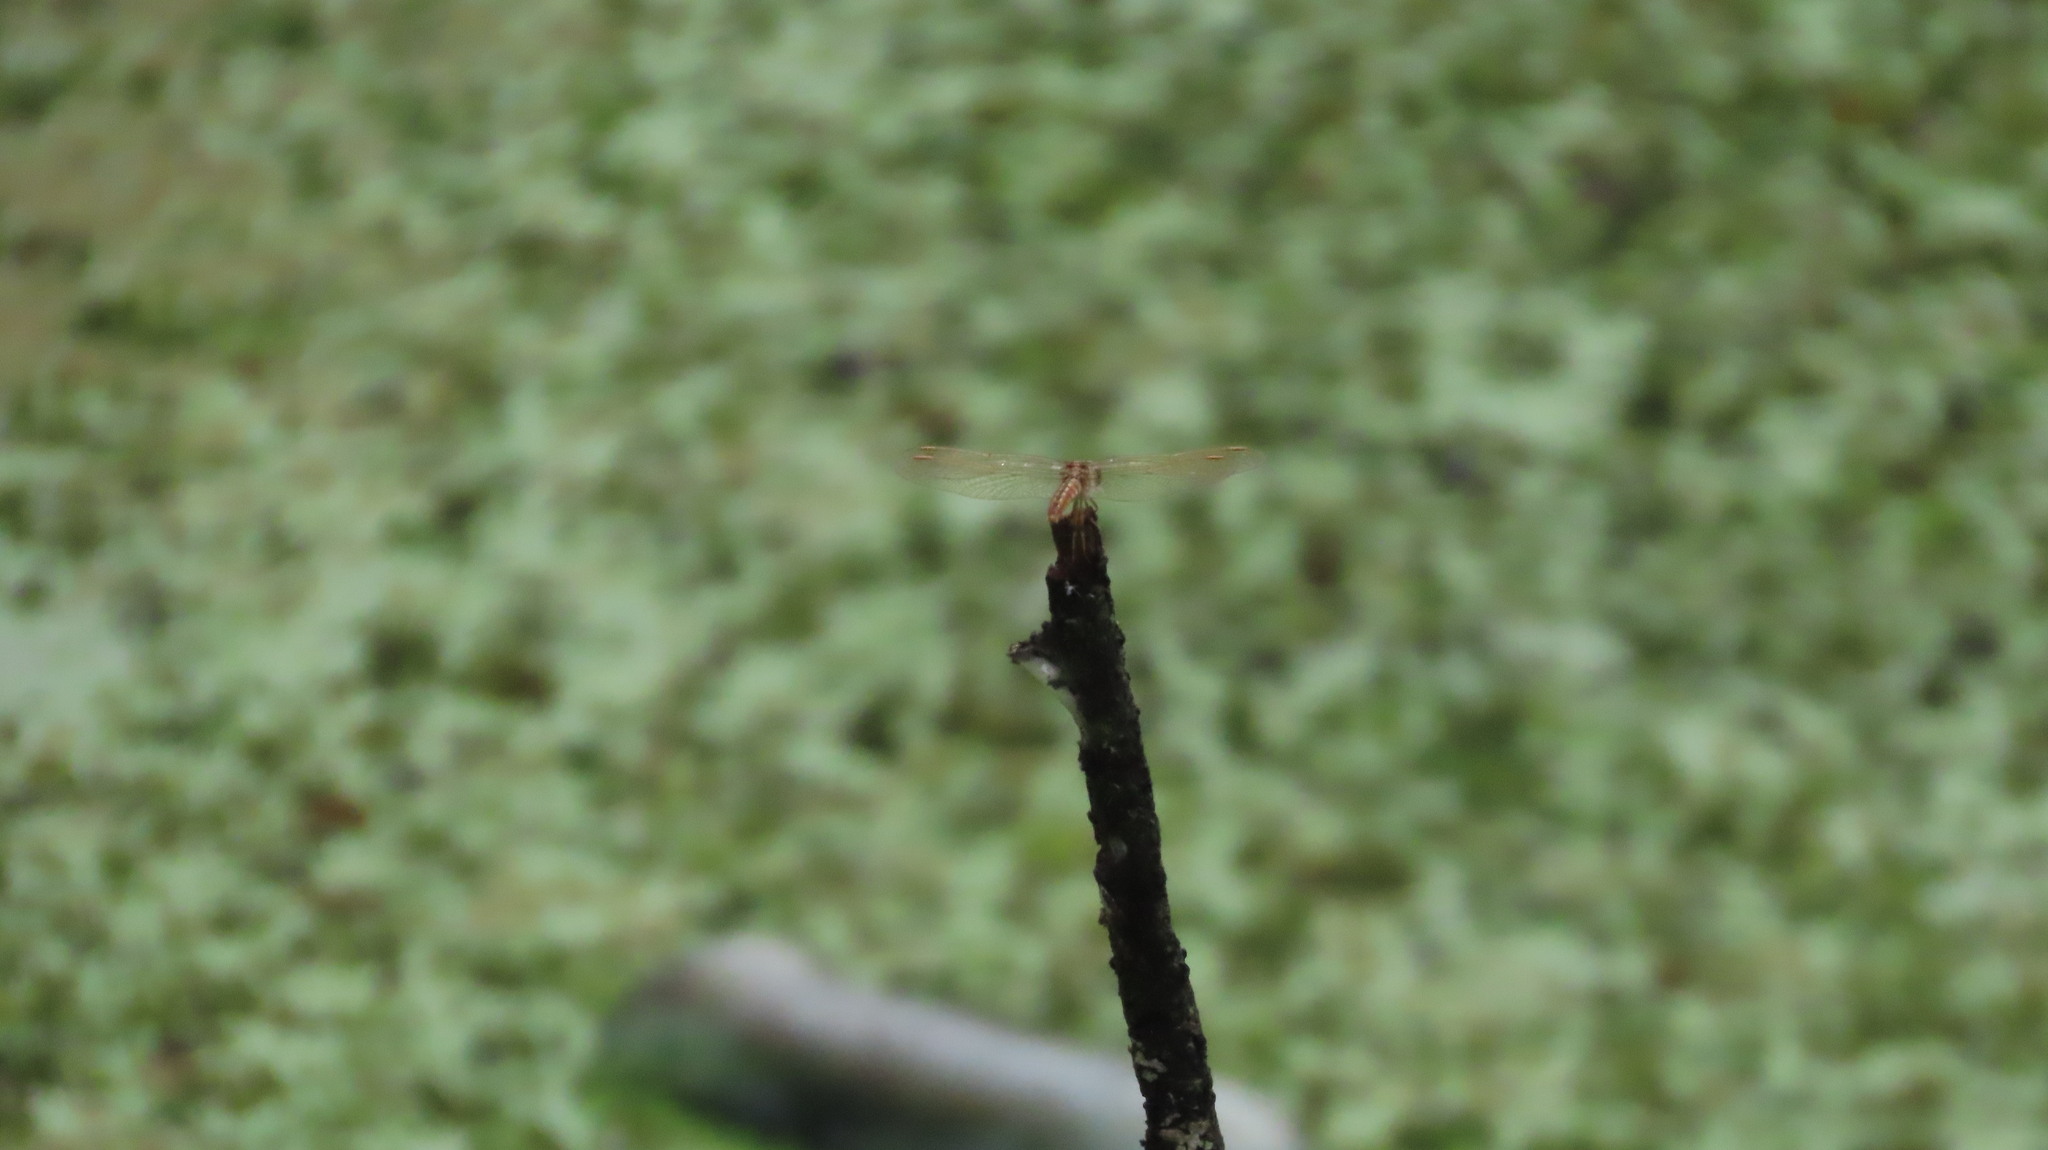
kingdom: Animalia
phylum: Arthropoda
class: Insecta
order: Odonata
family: Libellulidae
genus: Brachythemis
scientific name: Brachythemis contaminata
